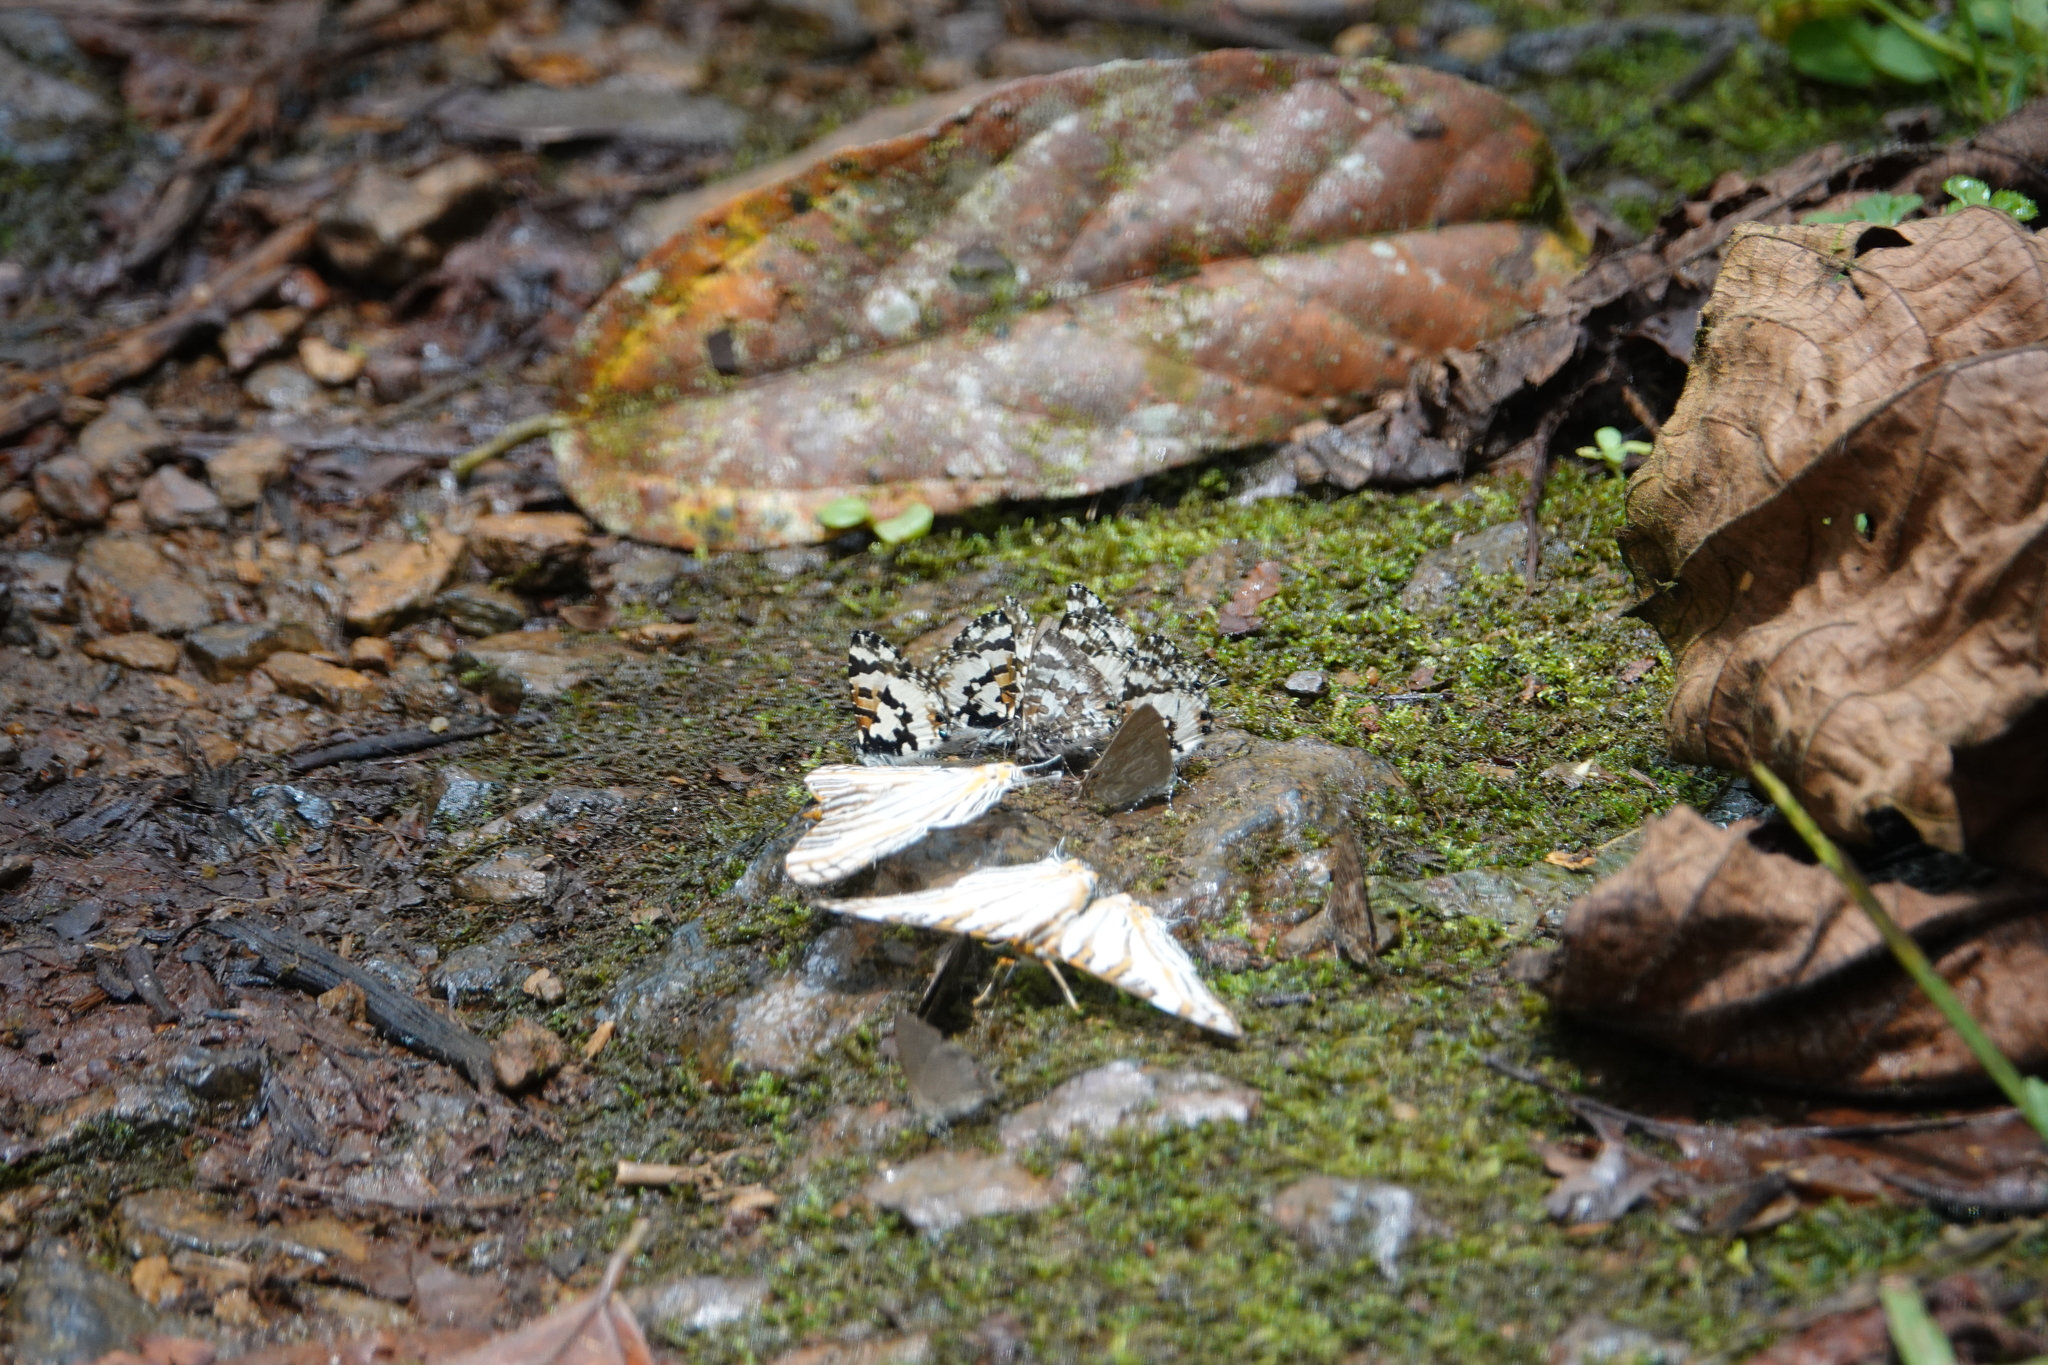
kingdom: Animalia
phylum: Arthropoda
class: Insecta
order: Lepidoptera
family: Lycaenidae
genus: Uranothauma
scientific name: Uranothauma falkensteini
